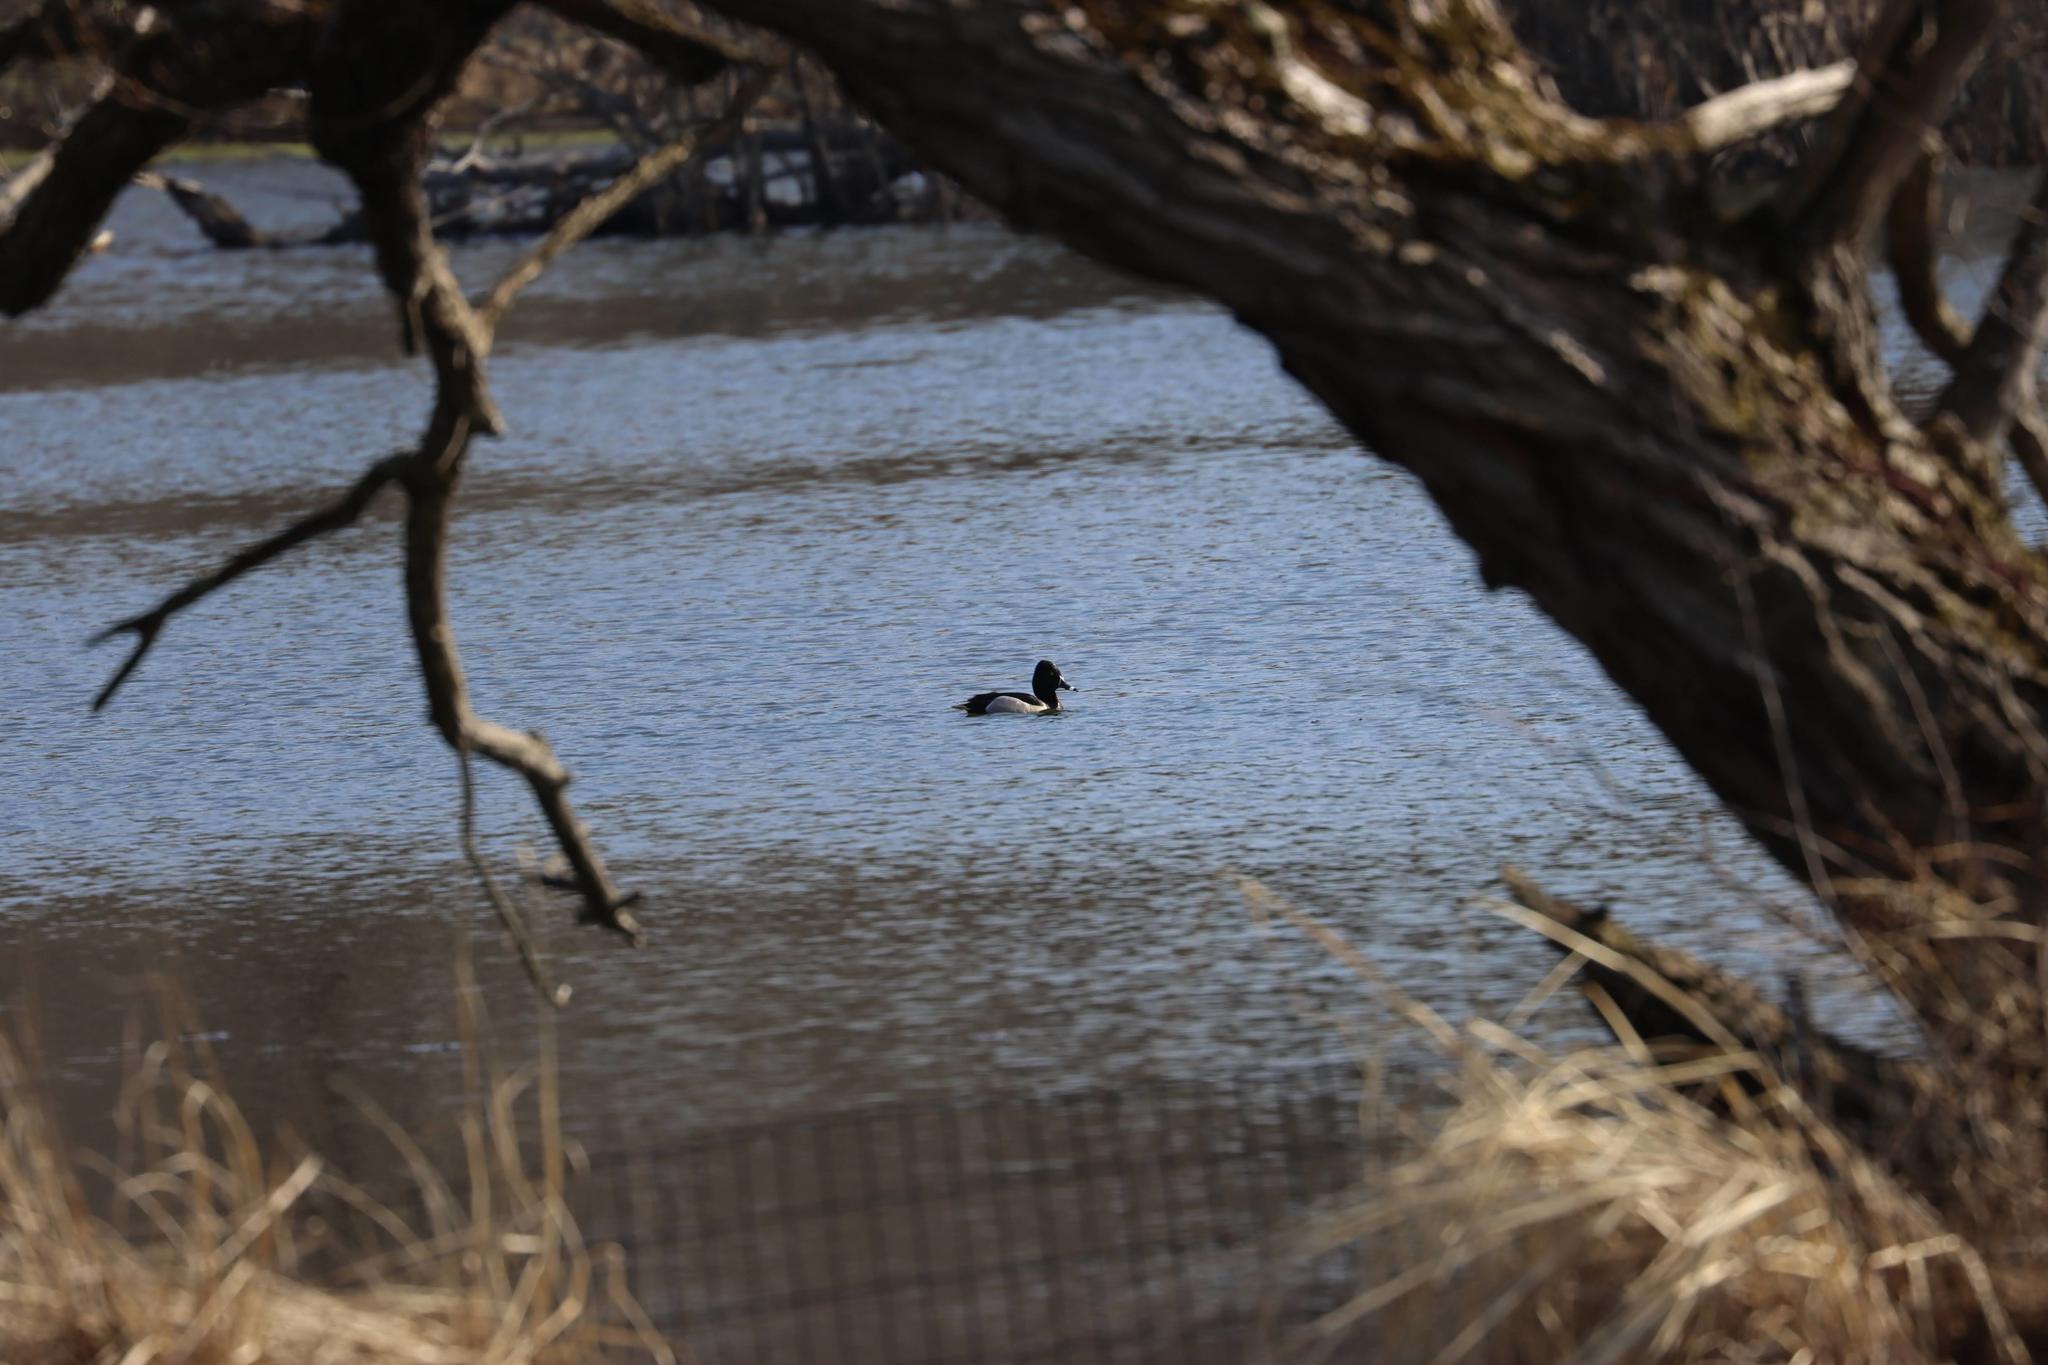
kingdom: Animalia
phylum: Chordata
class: Aves
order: Anseriformes
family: Anatidae
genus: Aythya
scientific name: Aythya collaris
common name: Ring-necked duck
